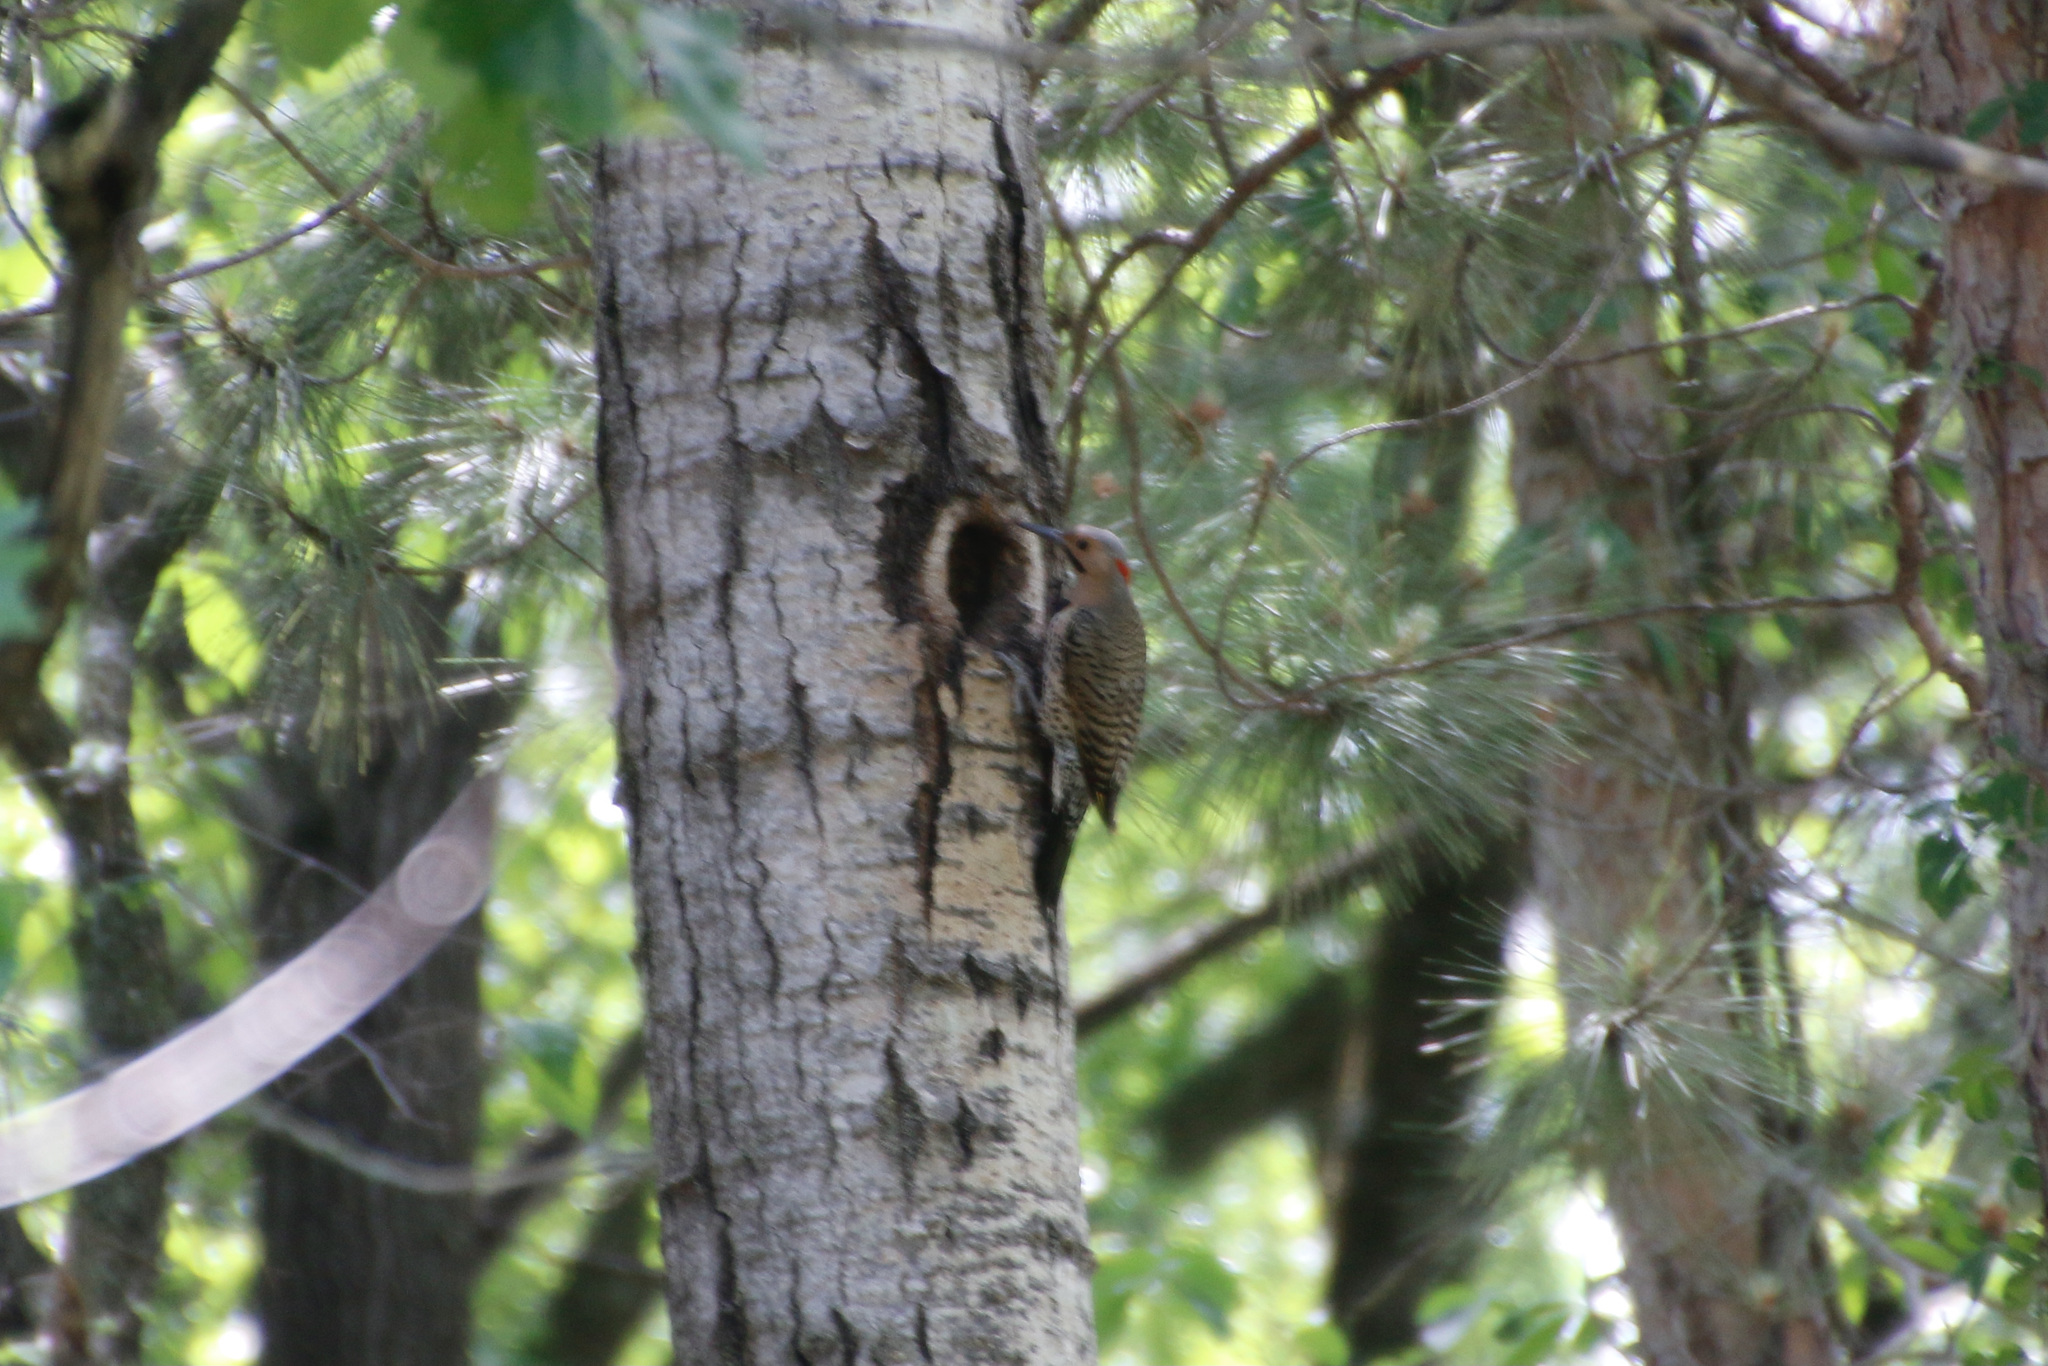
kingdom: Animalia
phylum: Chordata
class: Aves
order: Piciformes
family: Picidae
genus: Colaptes
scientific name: Colaptes auratus
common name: Northern flicker
